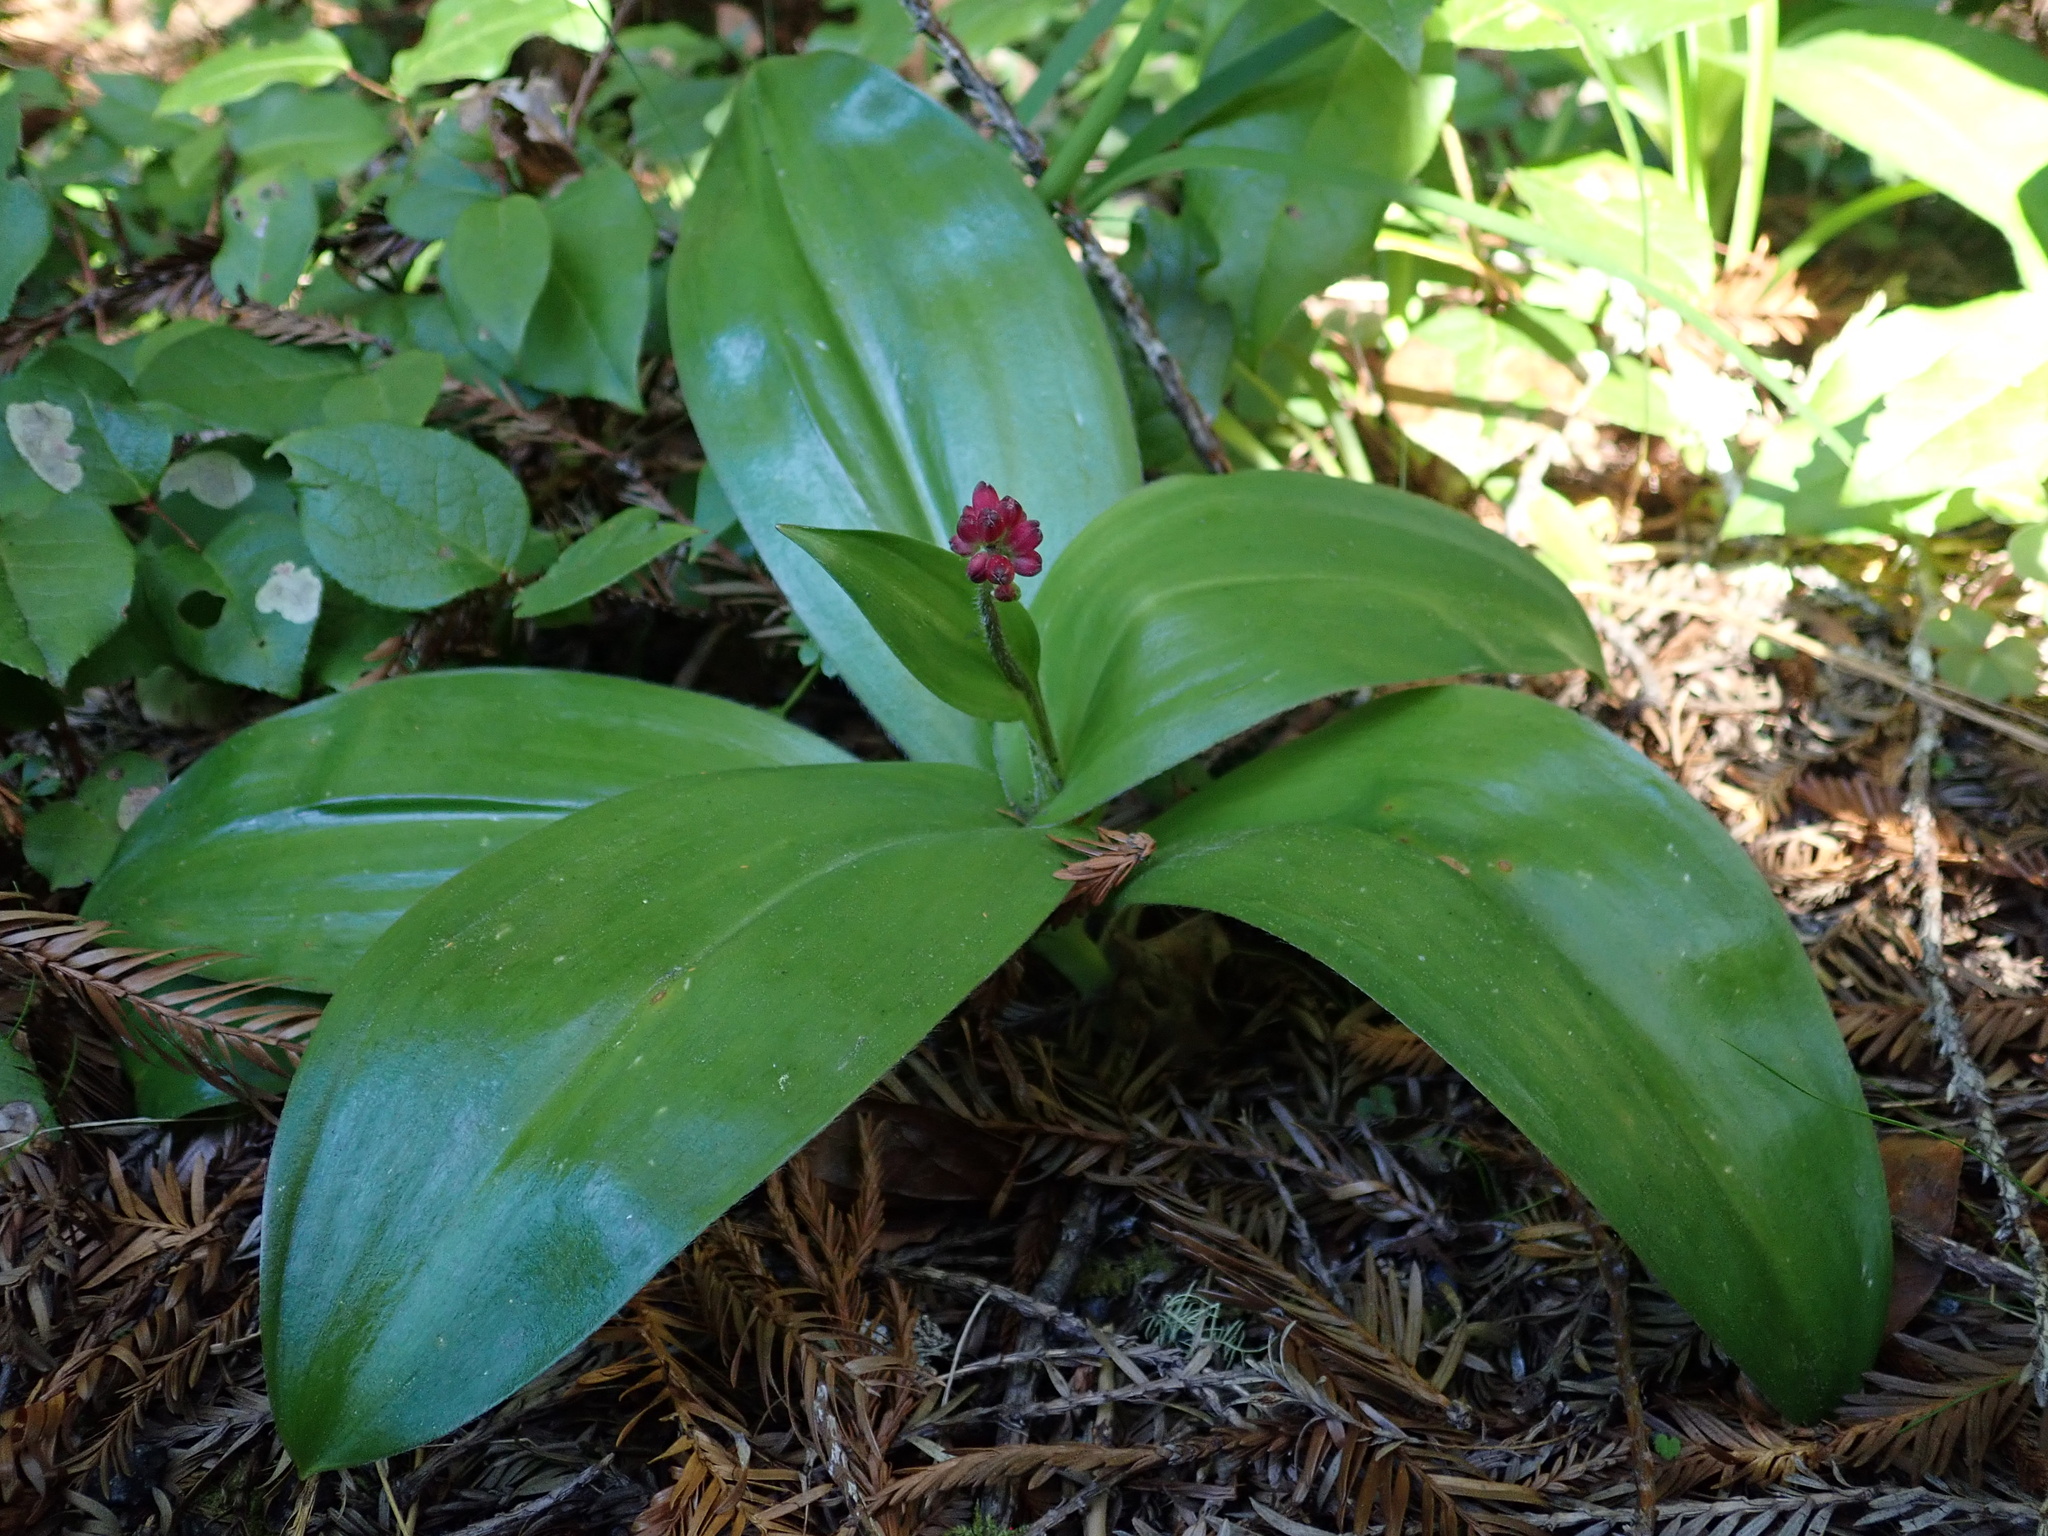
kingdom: Plantae
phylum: Tracheophyta
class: Liliopsida
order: Liliales
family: Liliaceae
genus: Clintonia
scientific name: Clintonia andrewsiana
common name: Red clintonia
